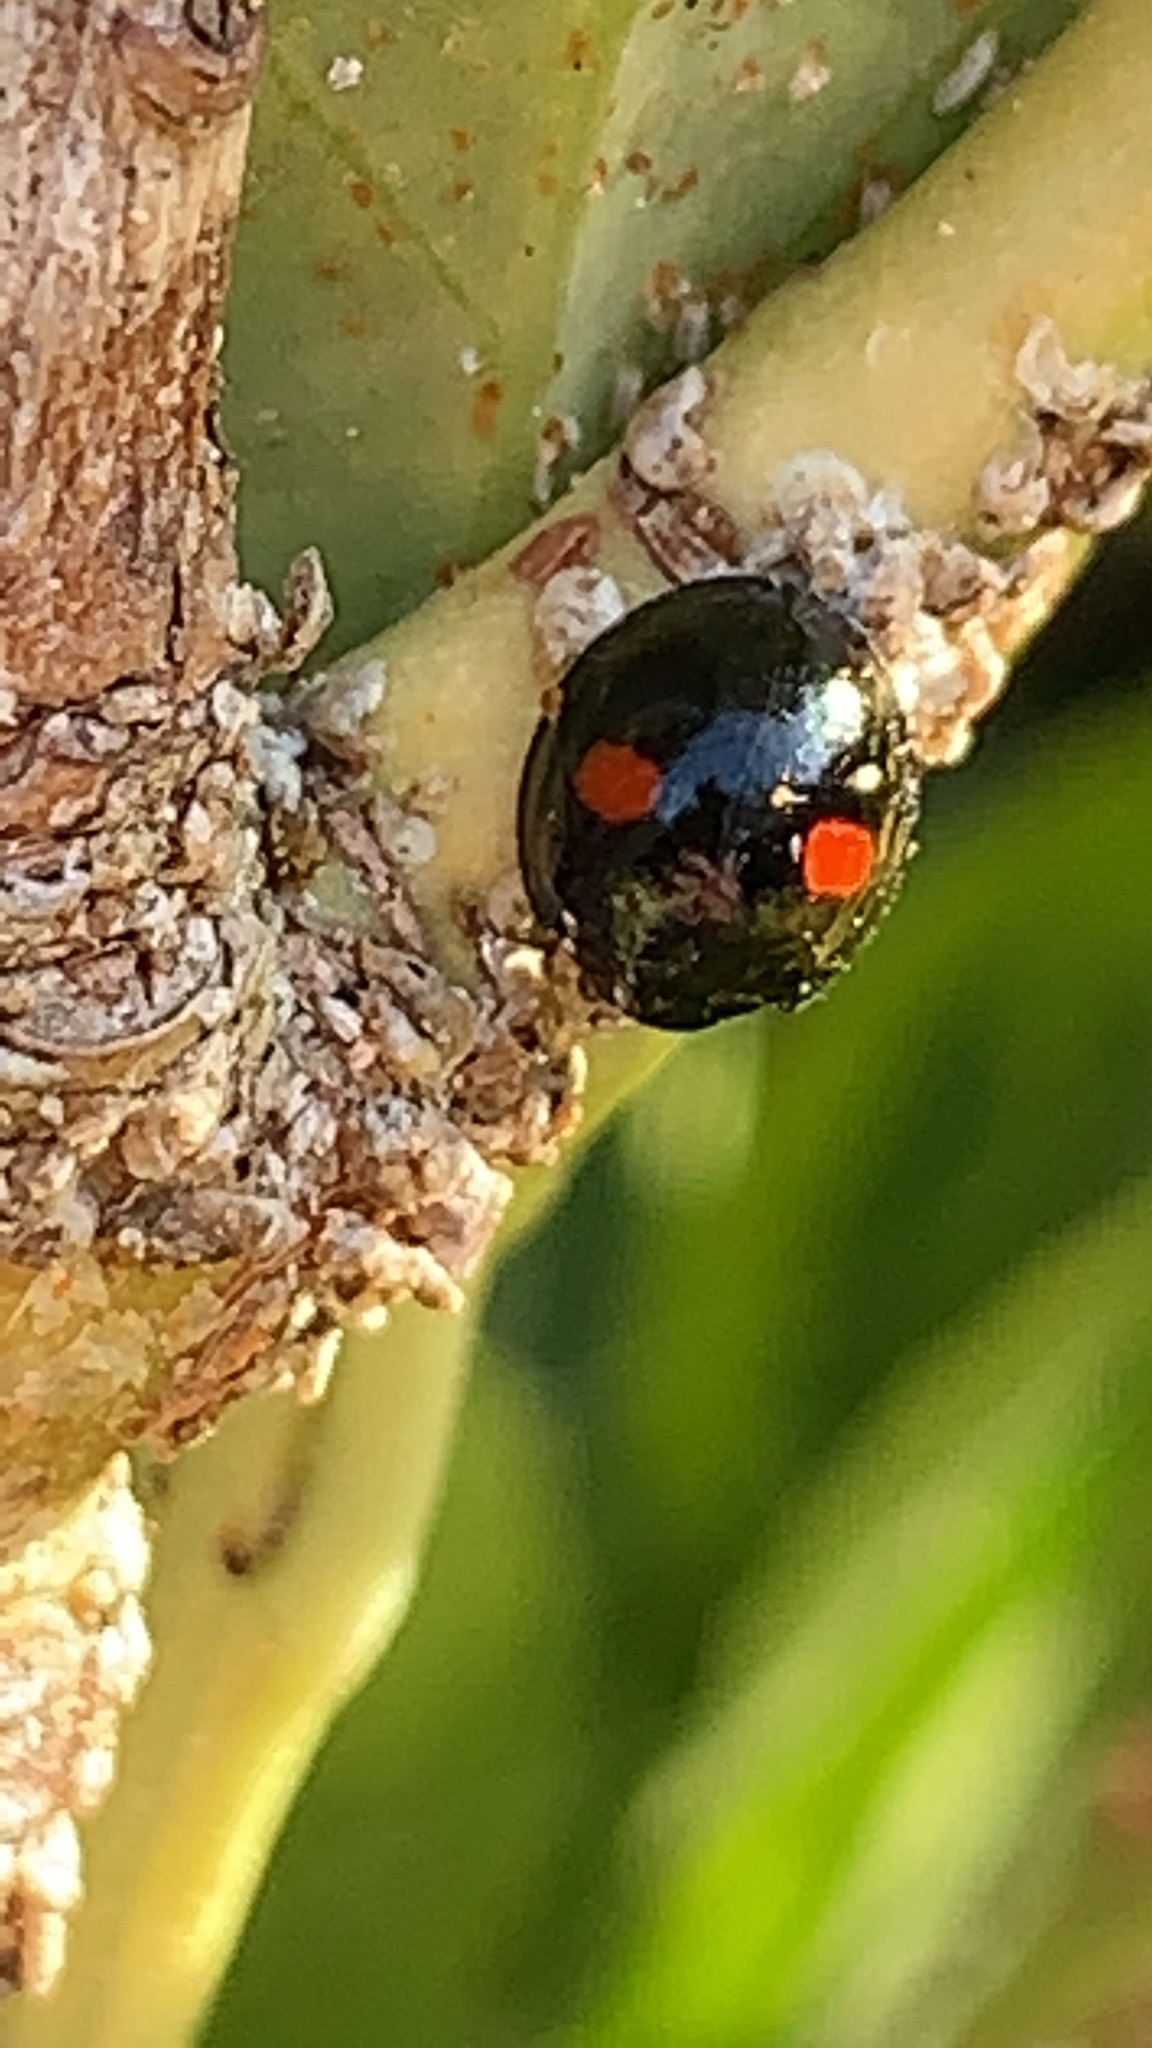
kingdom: Animalia
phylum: Arthropoda
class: Insecta
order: Coleoptera
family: Coccinellidae
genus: Chilocorus
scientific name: Chilocorus renipustulatus
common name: Kidney-spot ladybird
